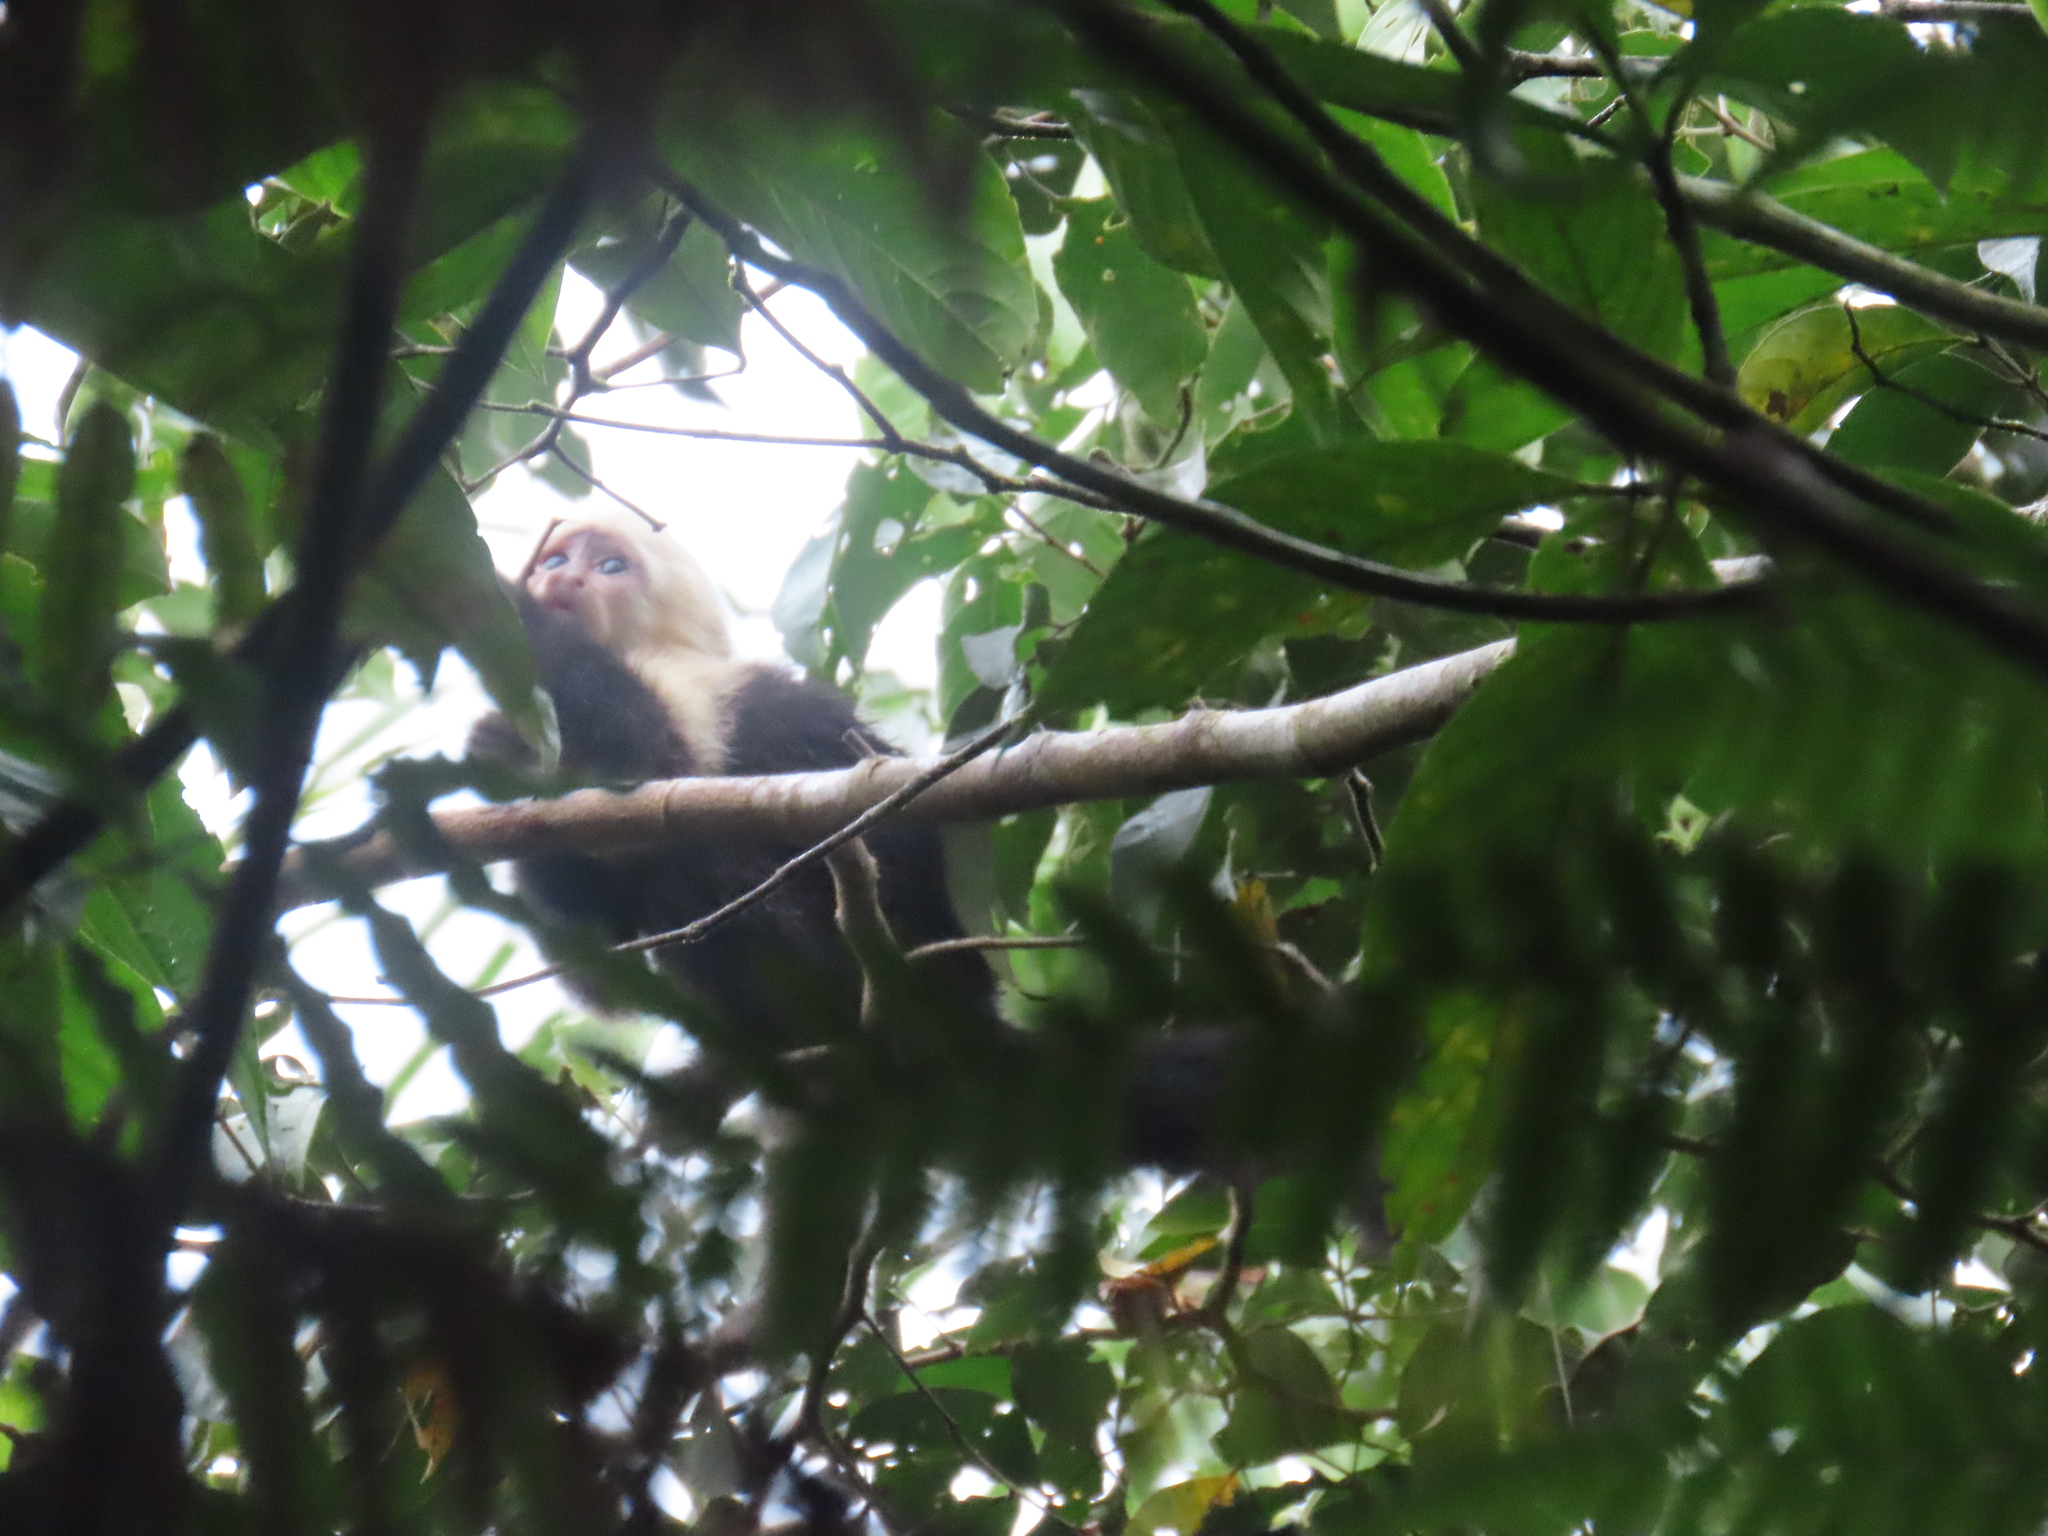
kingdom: Animalia
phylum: Chordata
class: Mammalia
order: Primates
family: Cebidae
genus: Cebus
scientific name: Cebus imitator
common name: Panamanian white-faced capuchin
